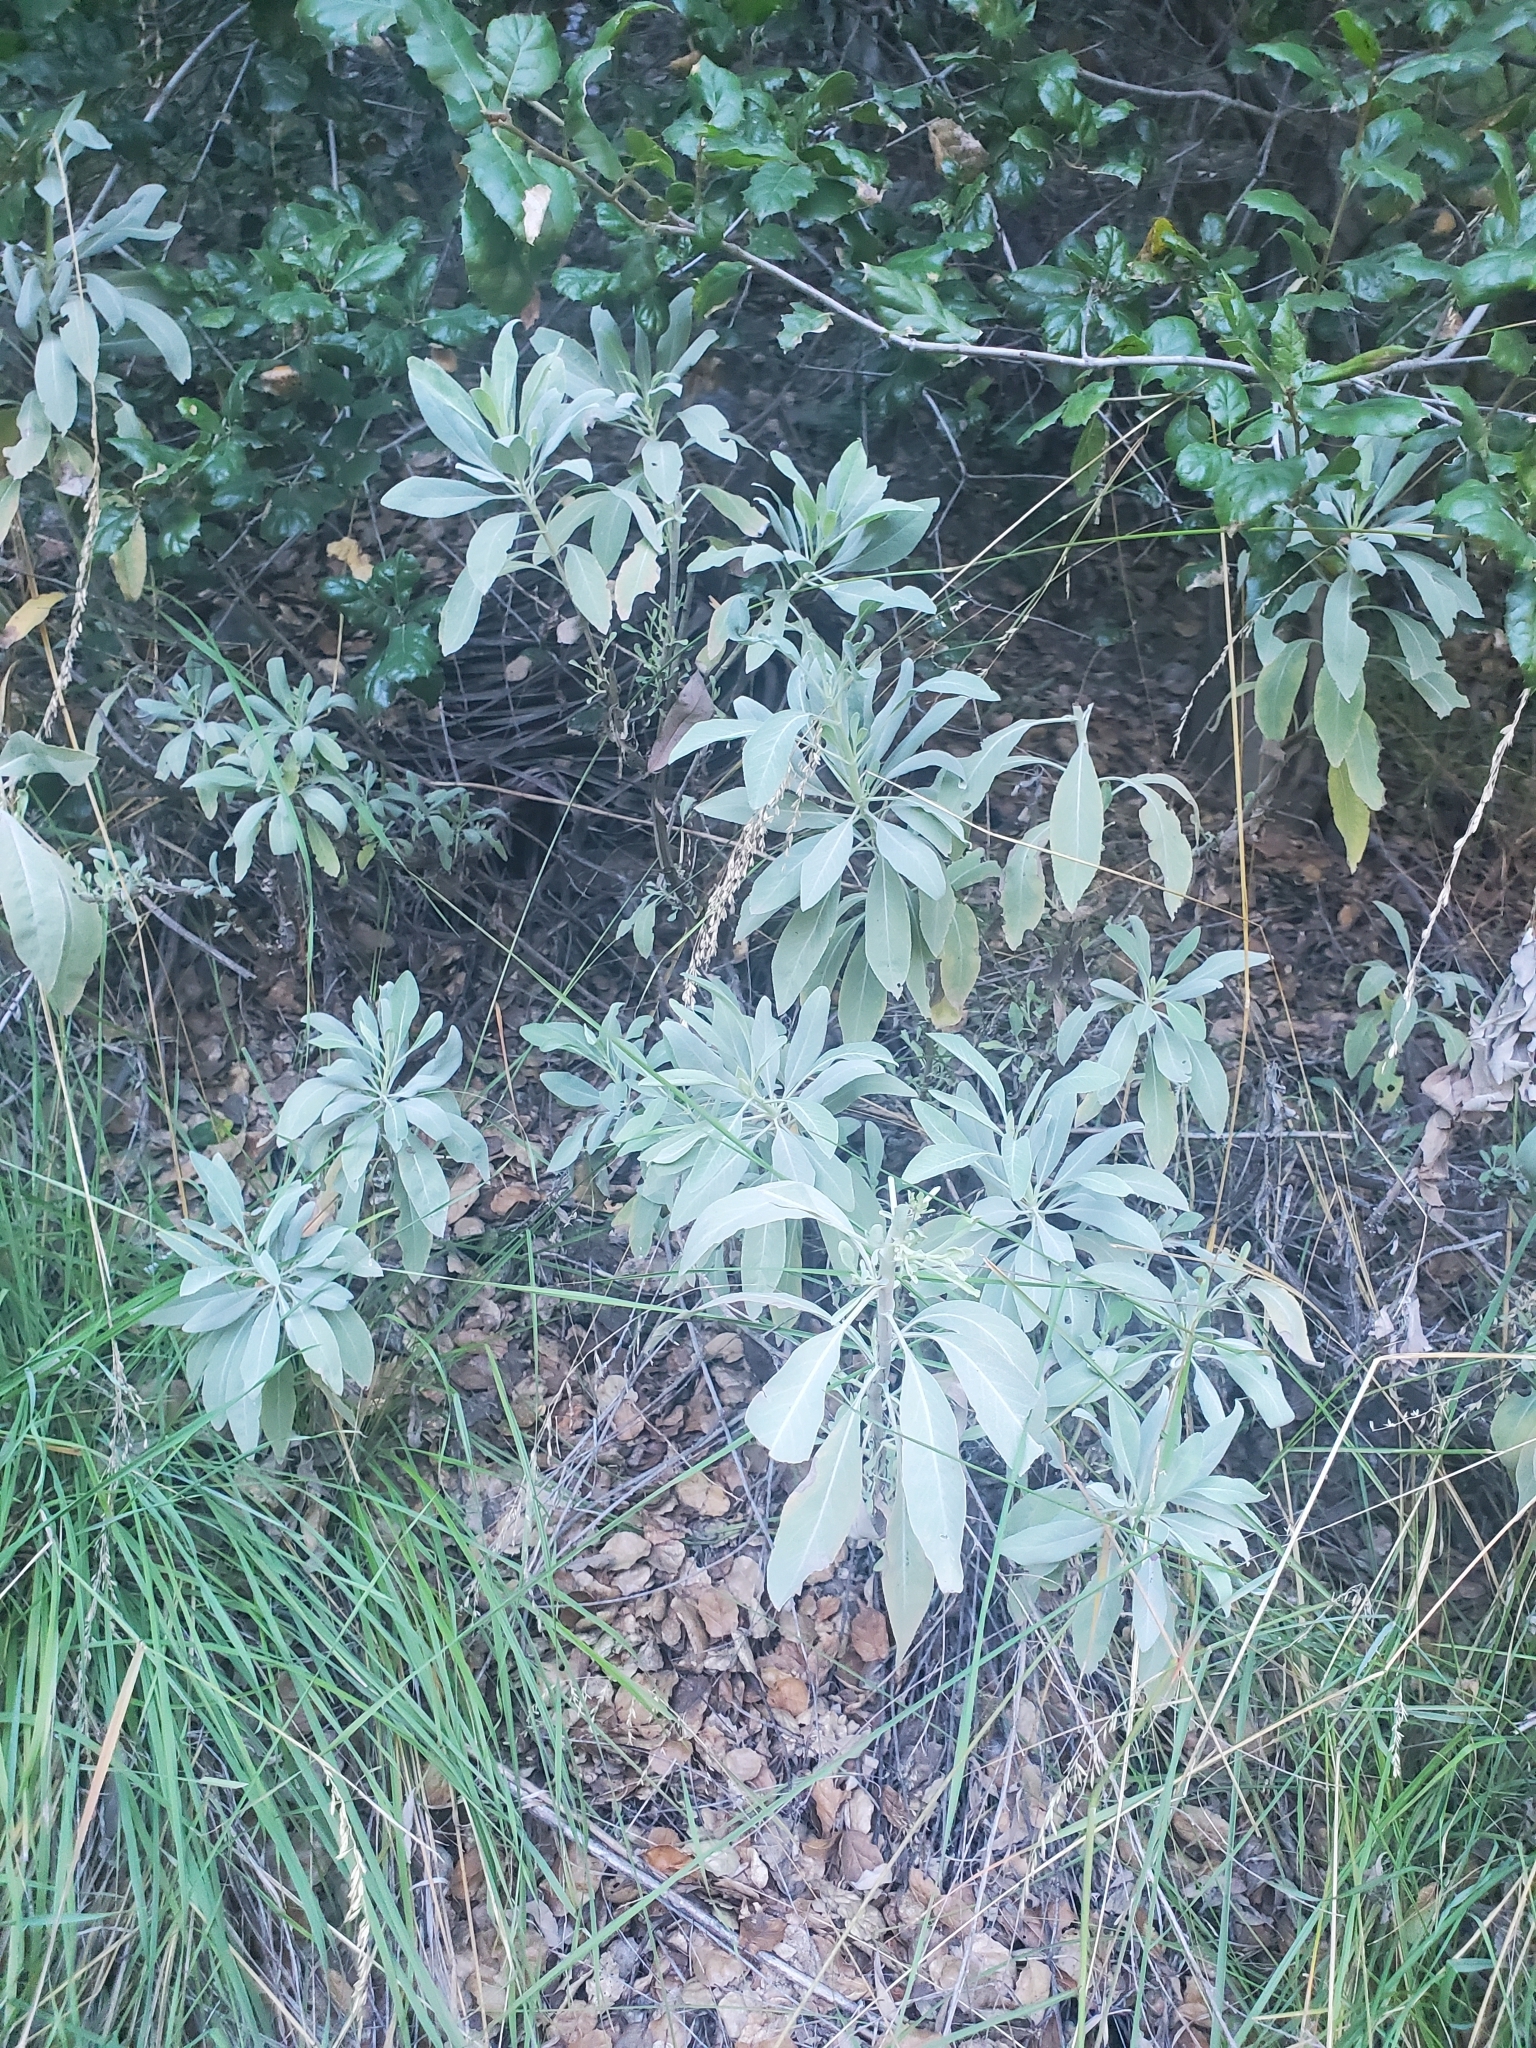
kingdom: Plantae
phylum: Tracheophyta
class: Magnoliopsida
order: Lamiales
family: Lamiaceae
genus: Salvia
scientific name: Salvia apiana
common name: White sage
